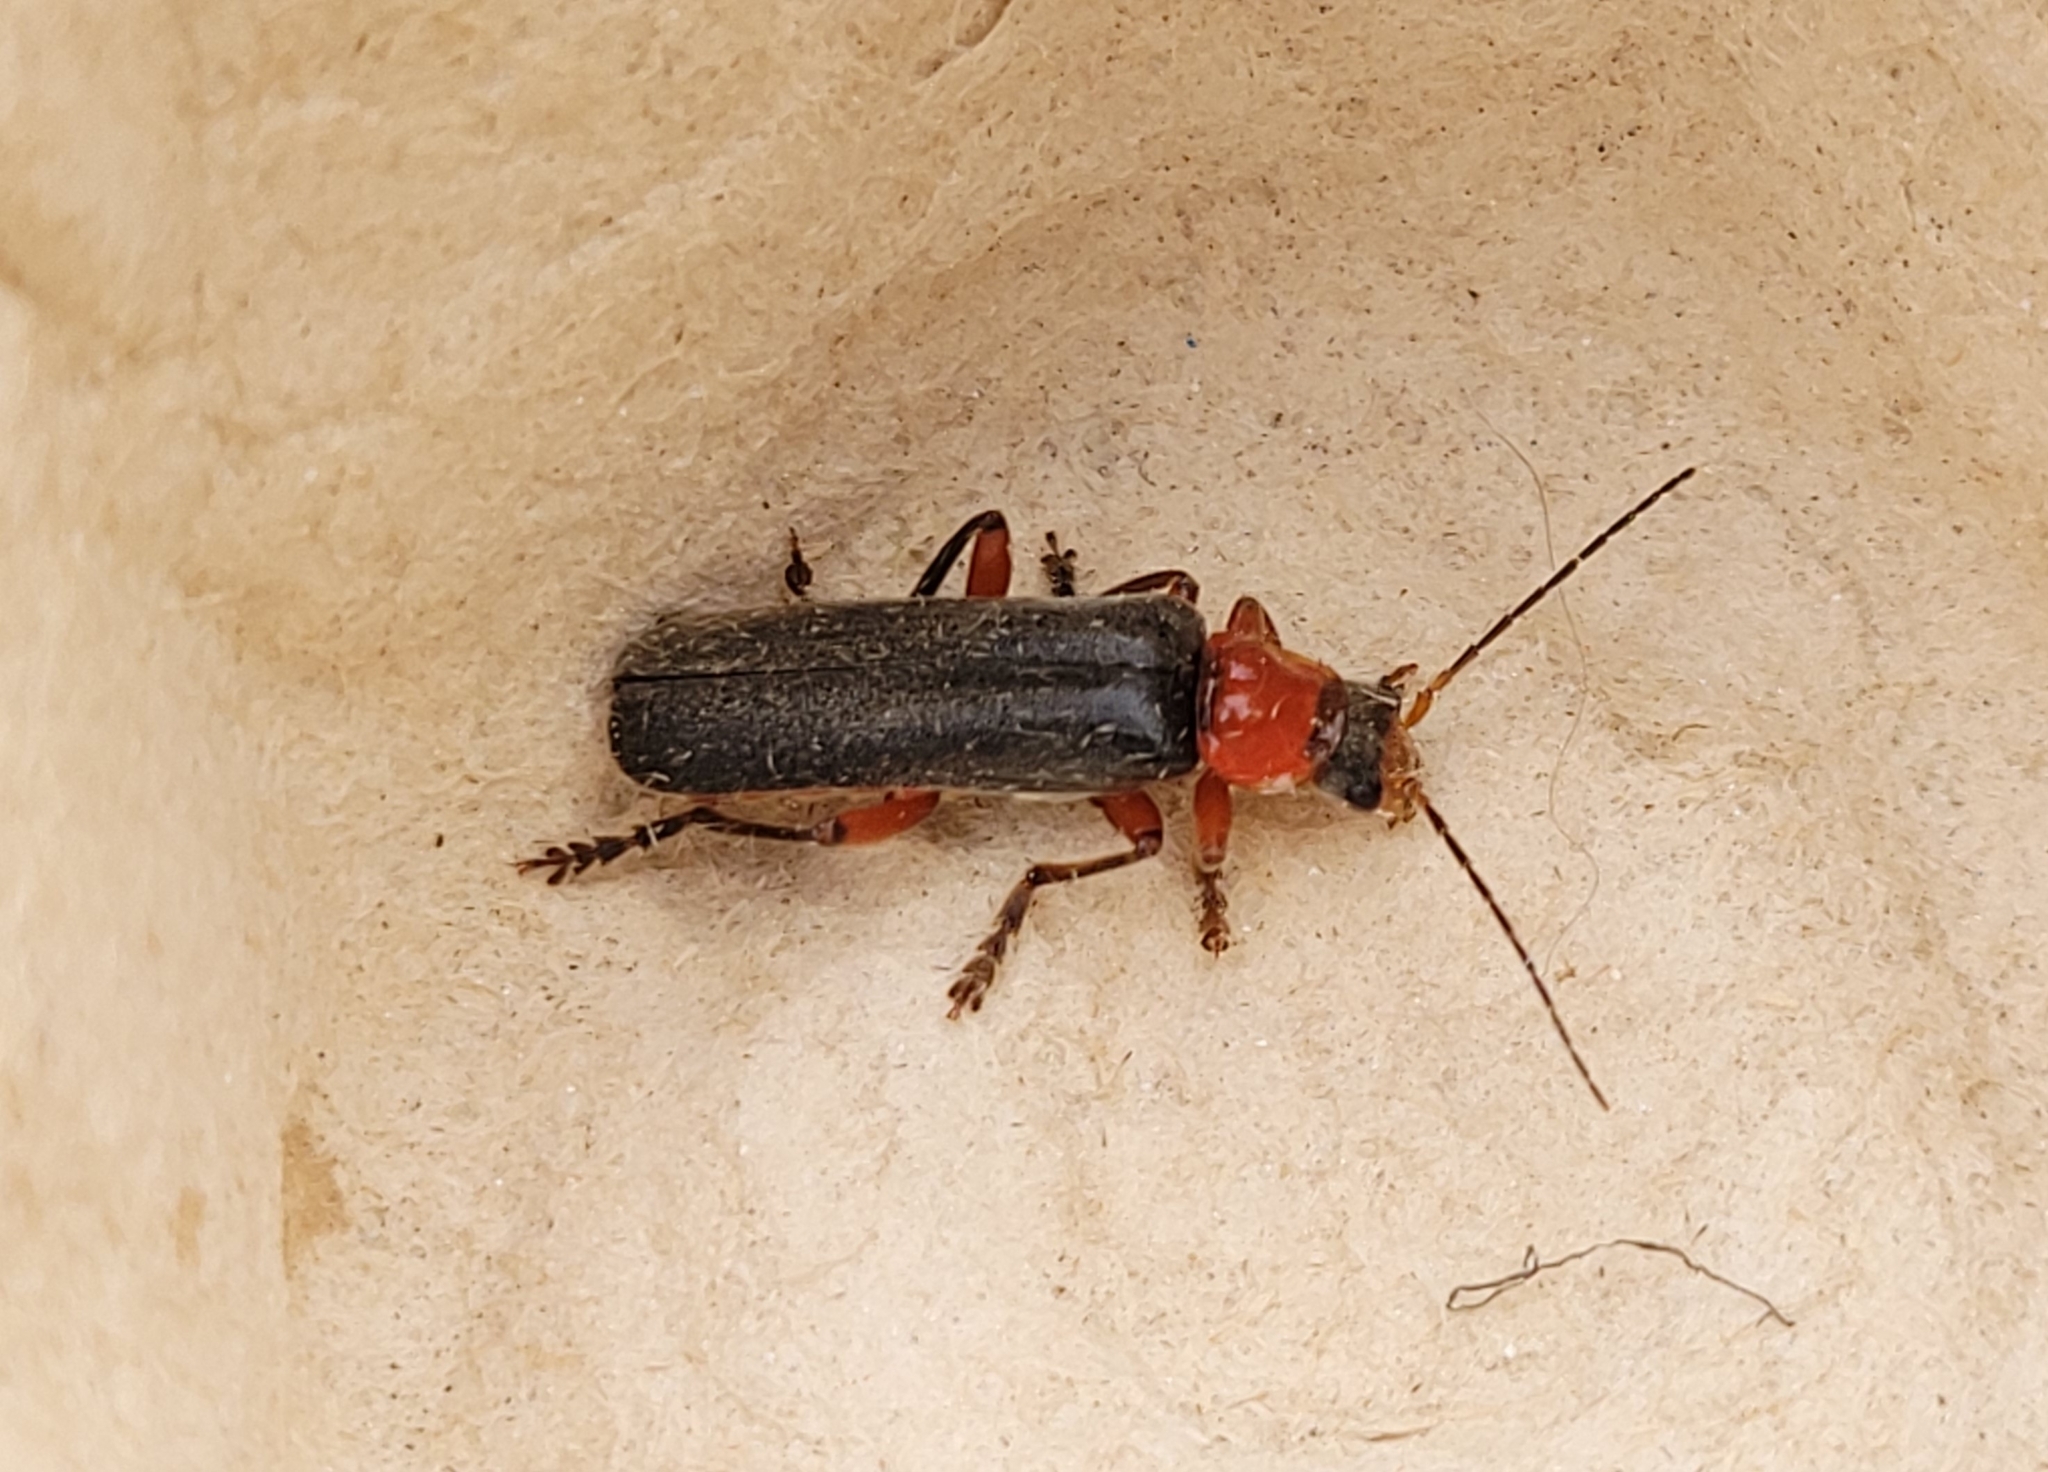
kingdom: Animalia
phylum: Arthropoda
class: Insecta
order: Coleoptera
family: Cantharidae
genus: Cantharis
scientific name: Cantharis pellucida
